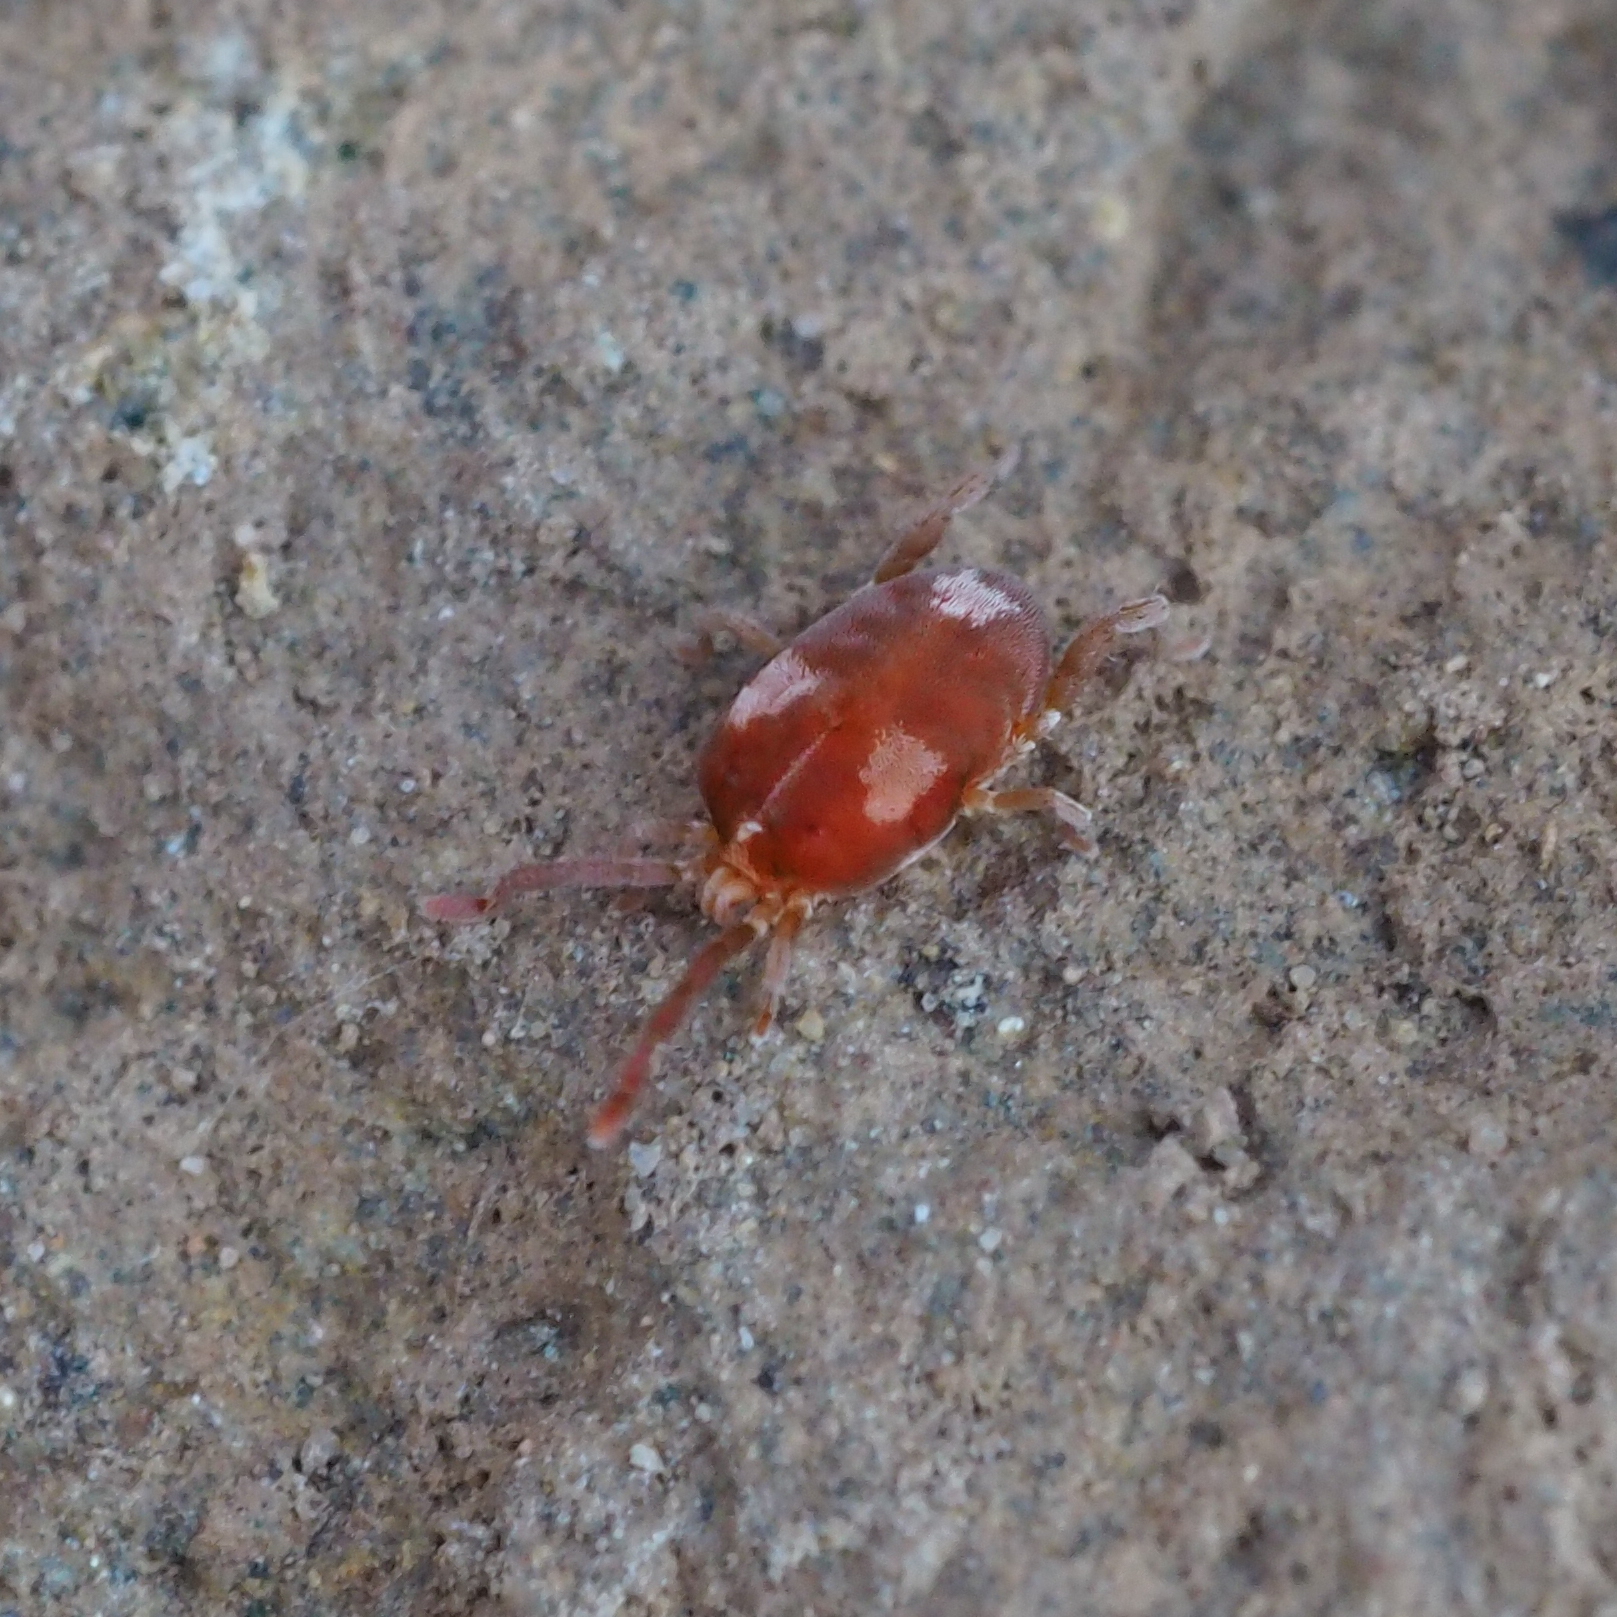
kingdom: Animalia
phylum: Arthropoda
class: Arachnida
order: Trombidiformes
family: Erythraeidae
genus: Leptus
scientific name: Leptus trimaculatus
